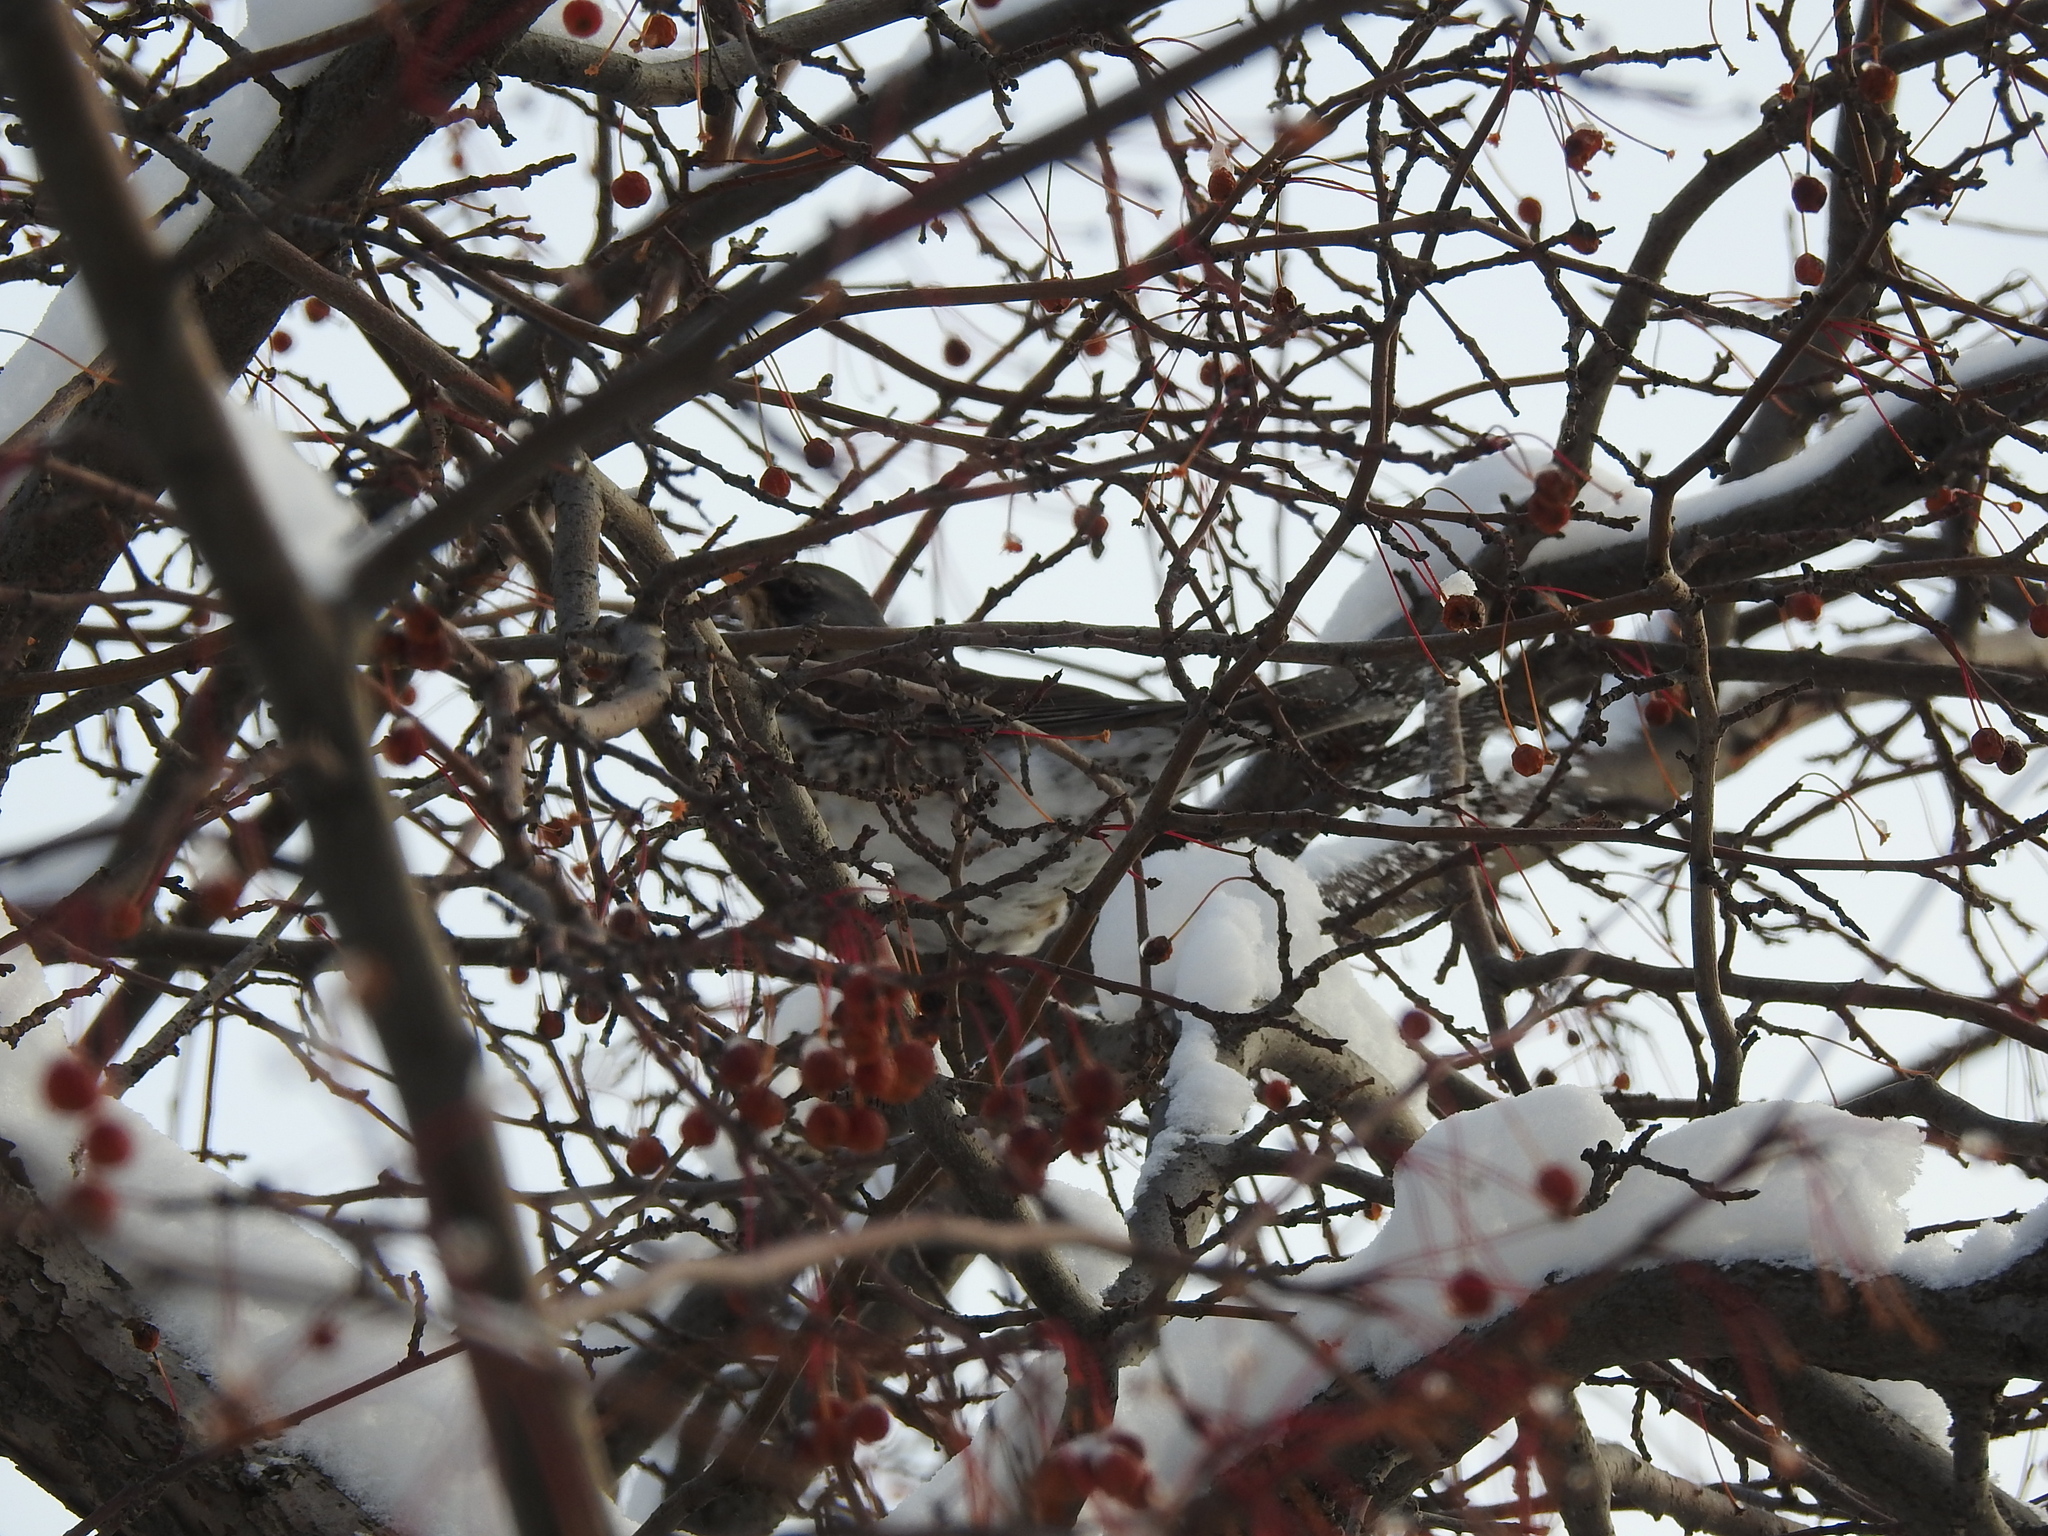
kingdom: Animalia
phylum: Chordata
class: Aves
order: Passeriformes
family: Turdidae
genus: Turdus
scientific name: Turdus pilaris
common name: Fieldfare
